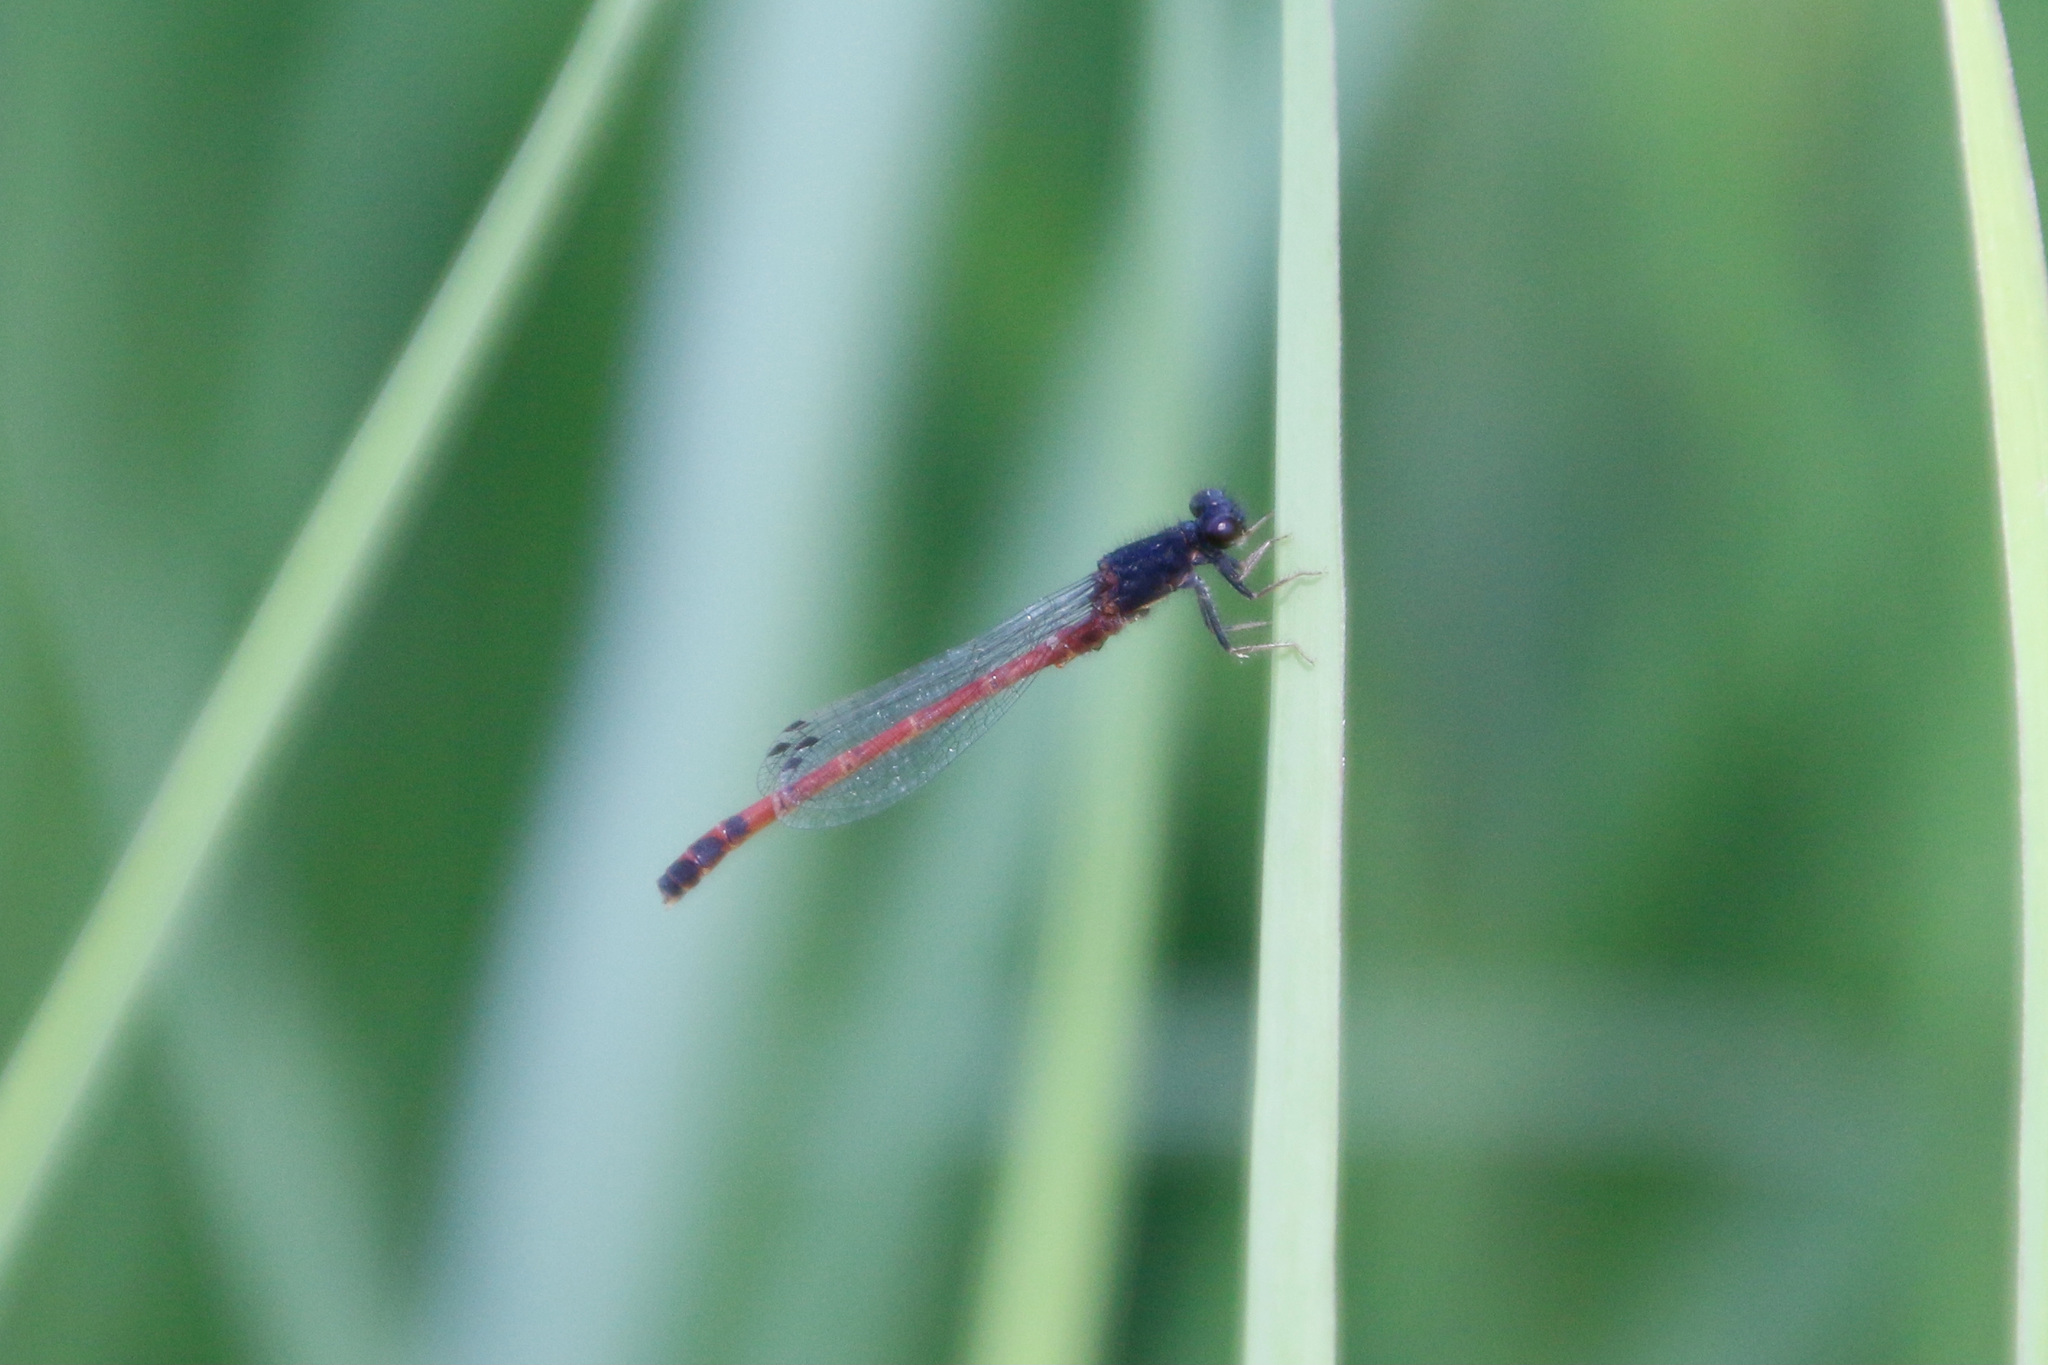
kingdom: Animalia
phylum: Arthropoda
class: Insecta
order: Odonata
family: Coenagrionidae
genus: Amphiagrion
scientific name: Amphiagrion abbreviatum
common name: Western red damsel
